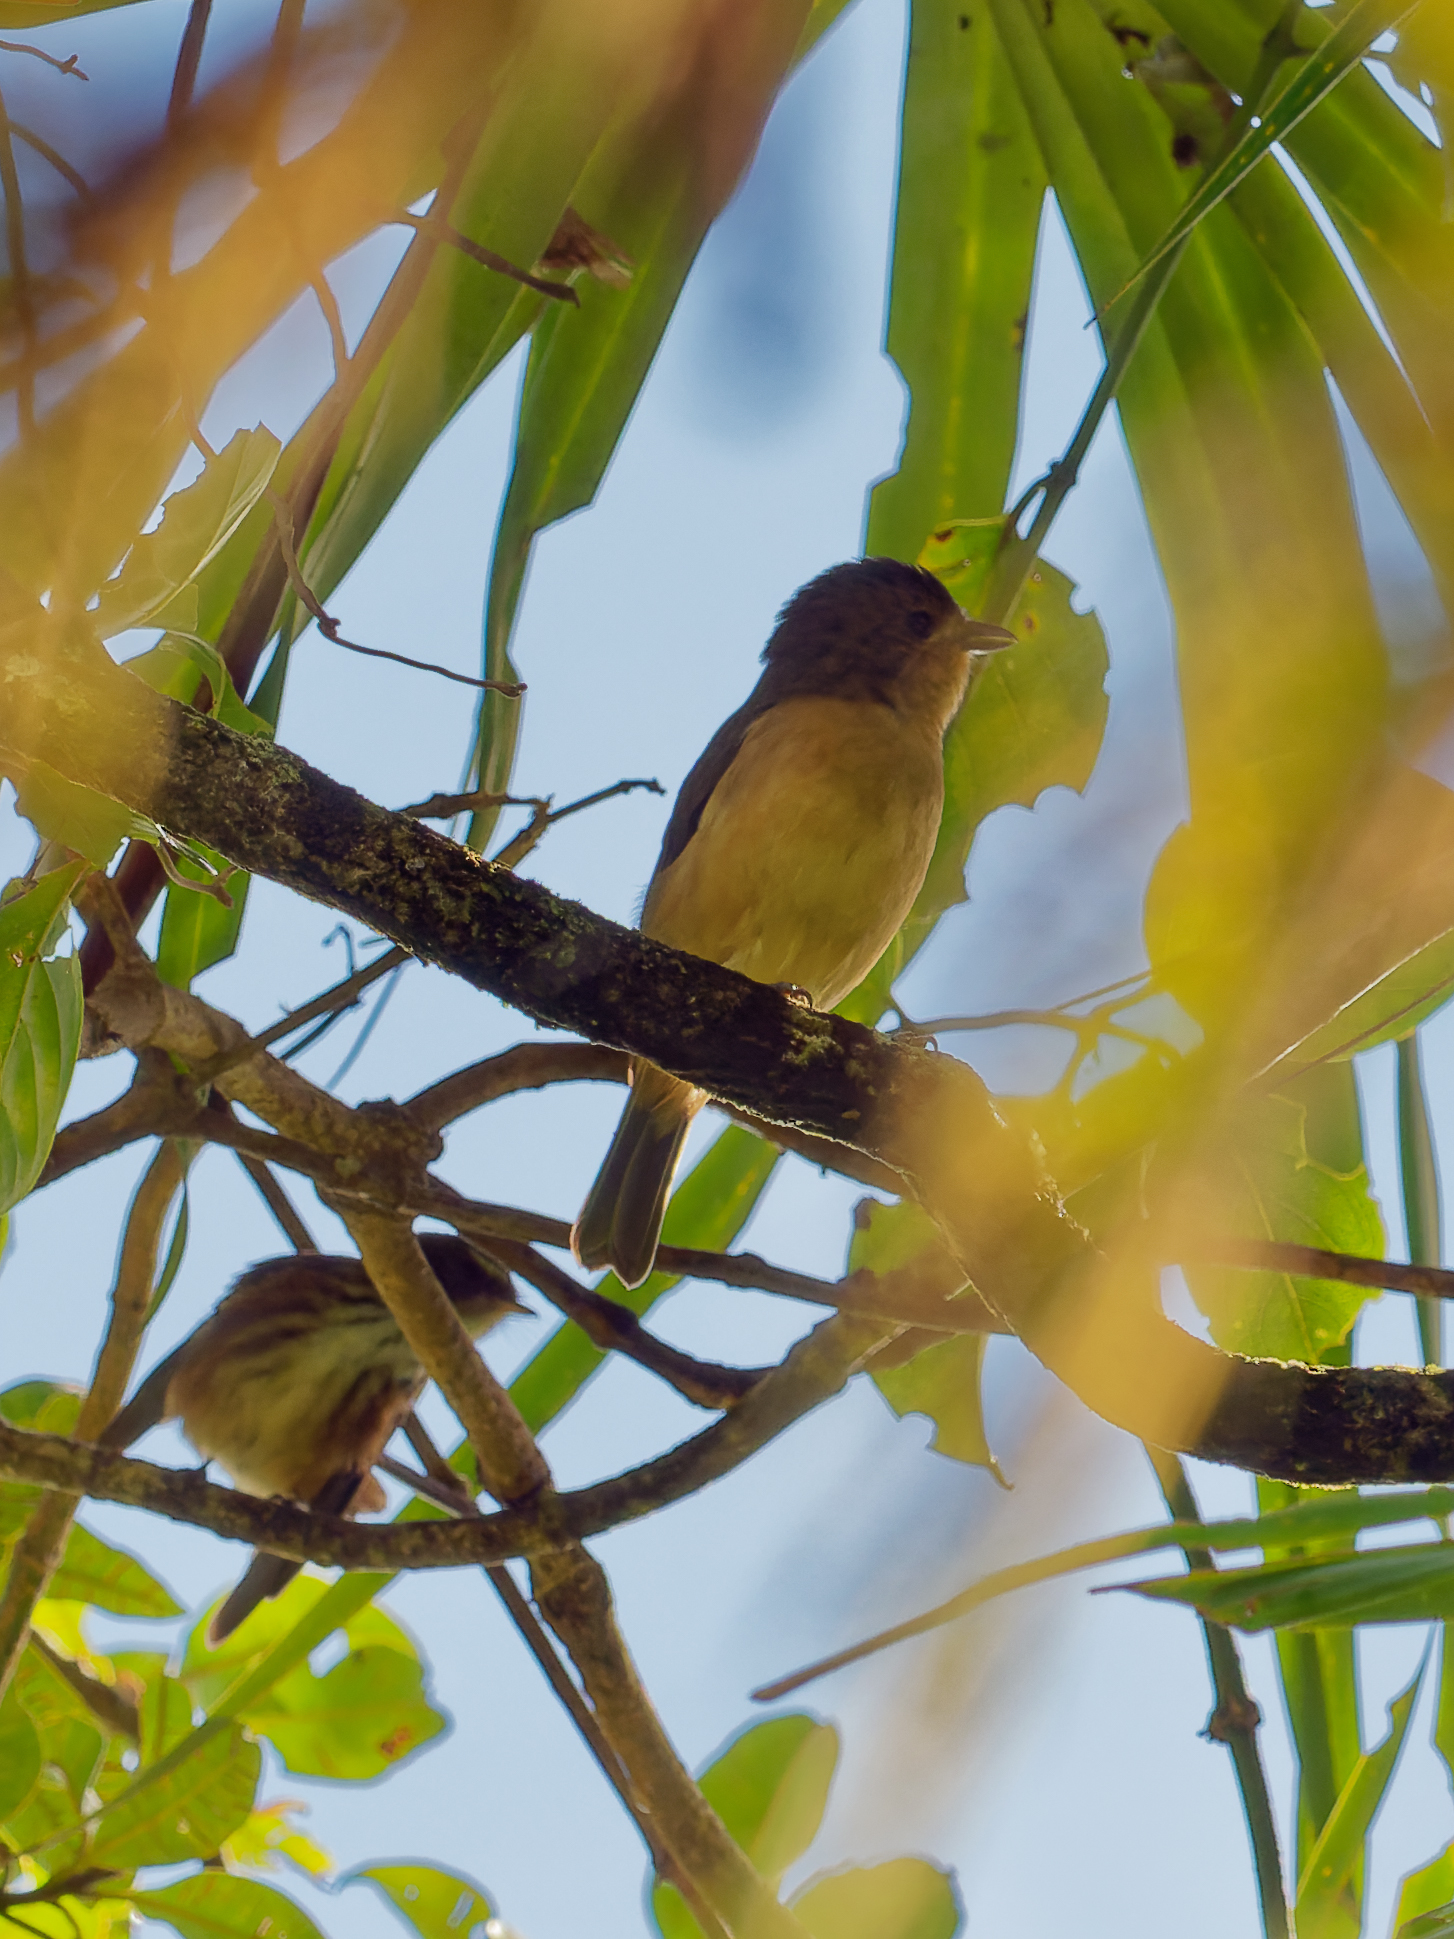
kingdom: Animalia
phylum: Chordata
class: Aves
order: Passeriformes
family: Monarchidae
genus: Myiagra
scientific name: Myiagra vanikorensis
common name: Vanikoro flycatcher
